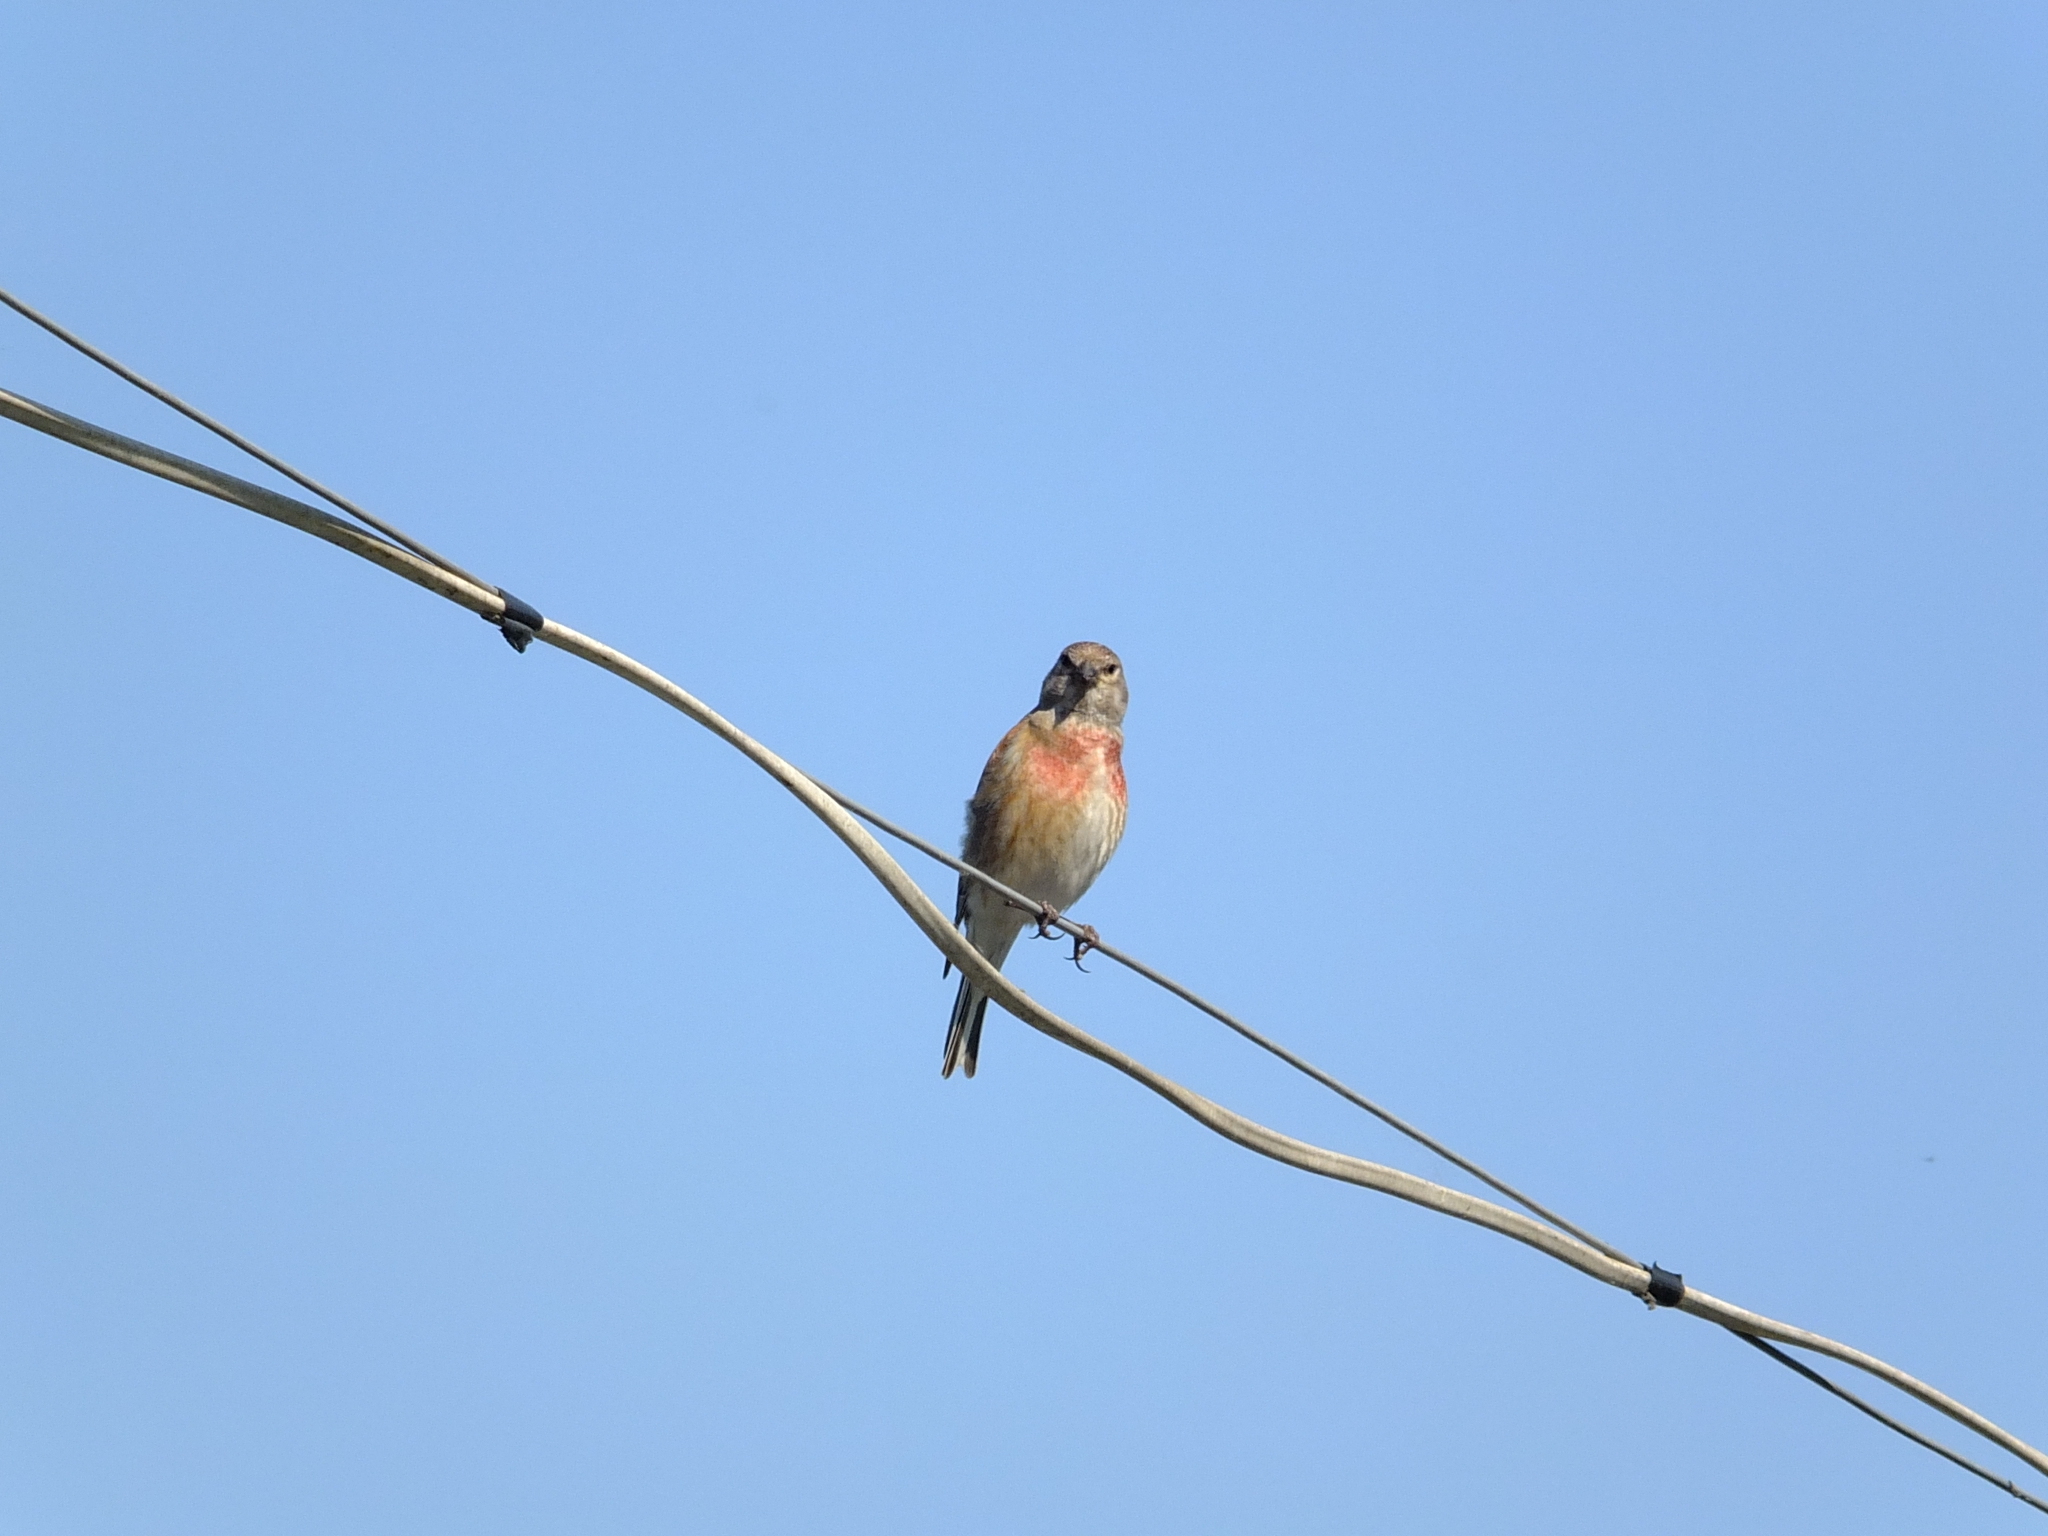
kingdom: Animalia
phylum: Chordata
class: Aves
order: Passeriformes
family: Fringillidae
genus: Linaria
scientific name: Linaria cannabina
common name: Common linnet
